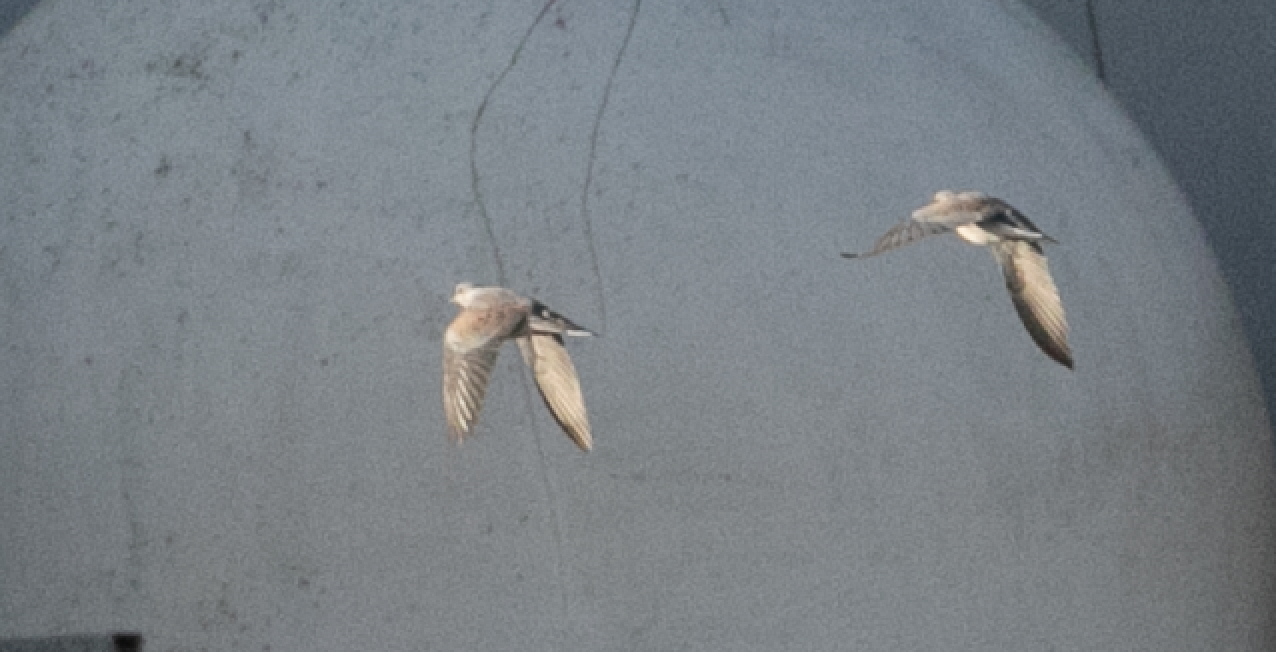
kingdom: Animalia
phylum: Chordata
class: Aves
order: Columbiformes
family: Columbidae
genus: Streptopelia
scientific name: Streptopelia turtur
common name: European turtle dove
